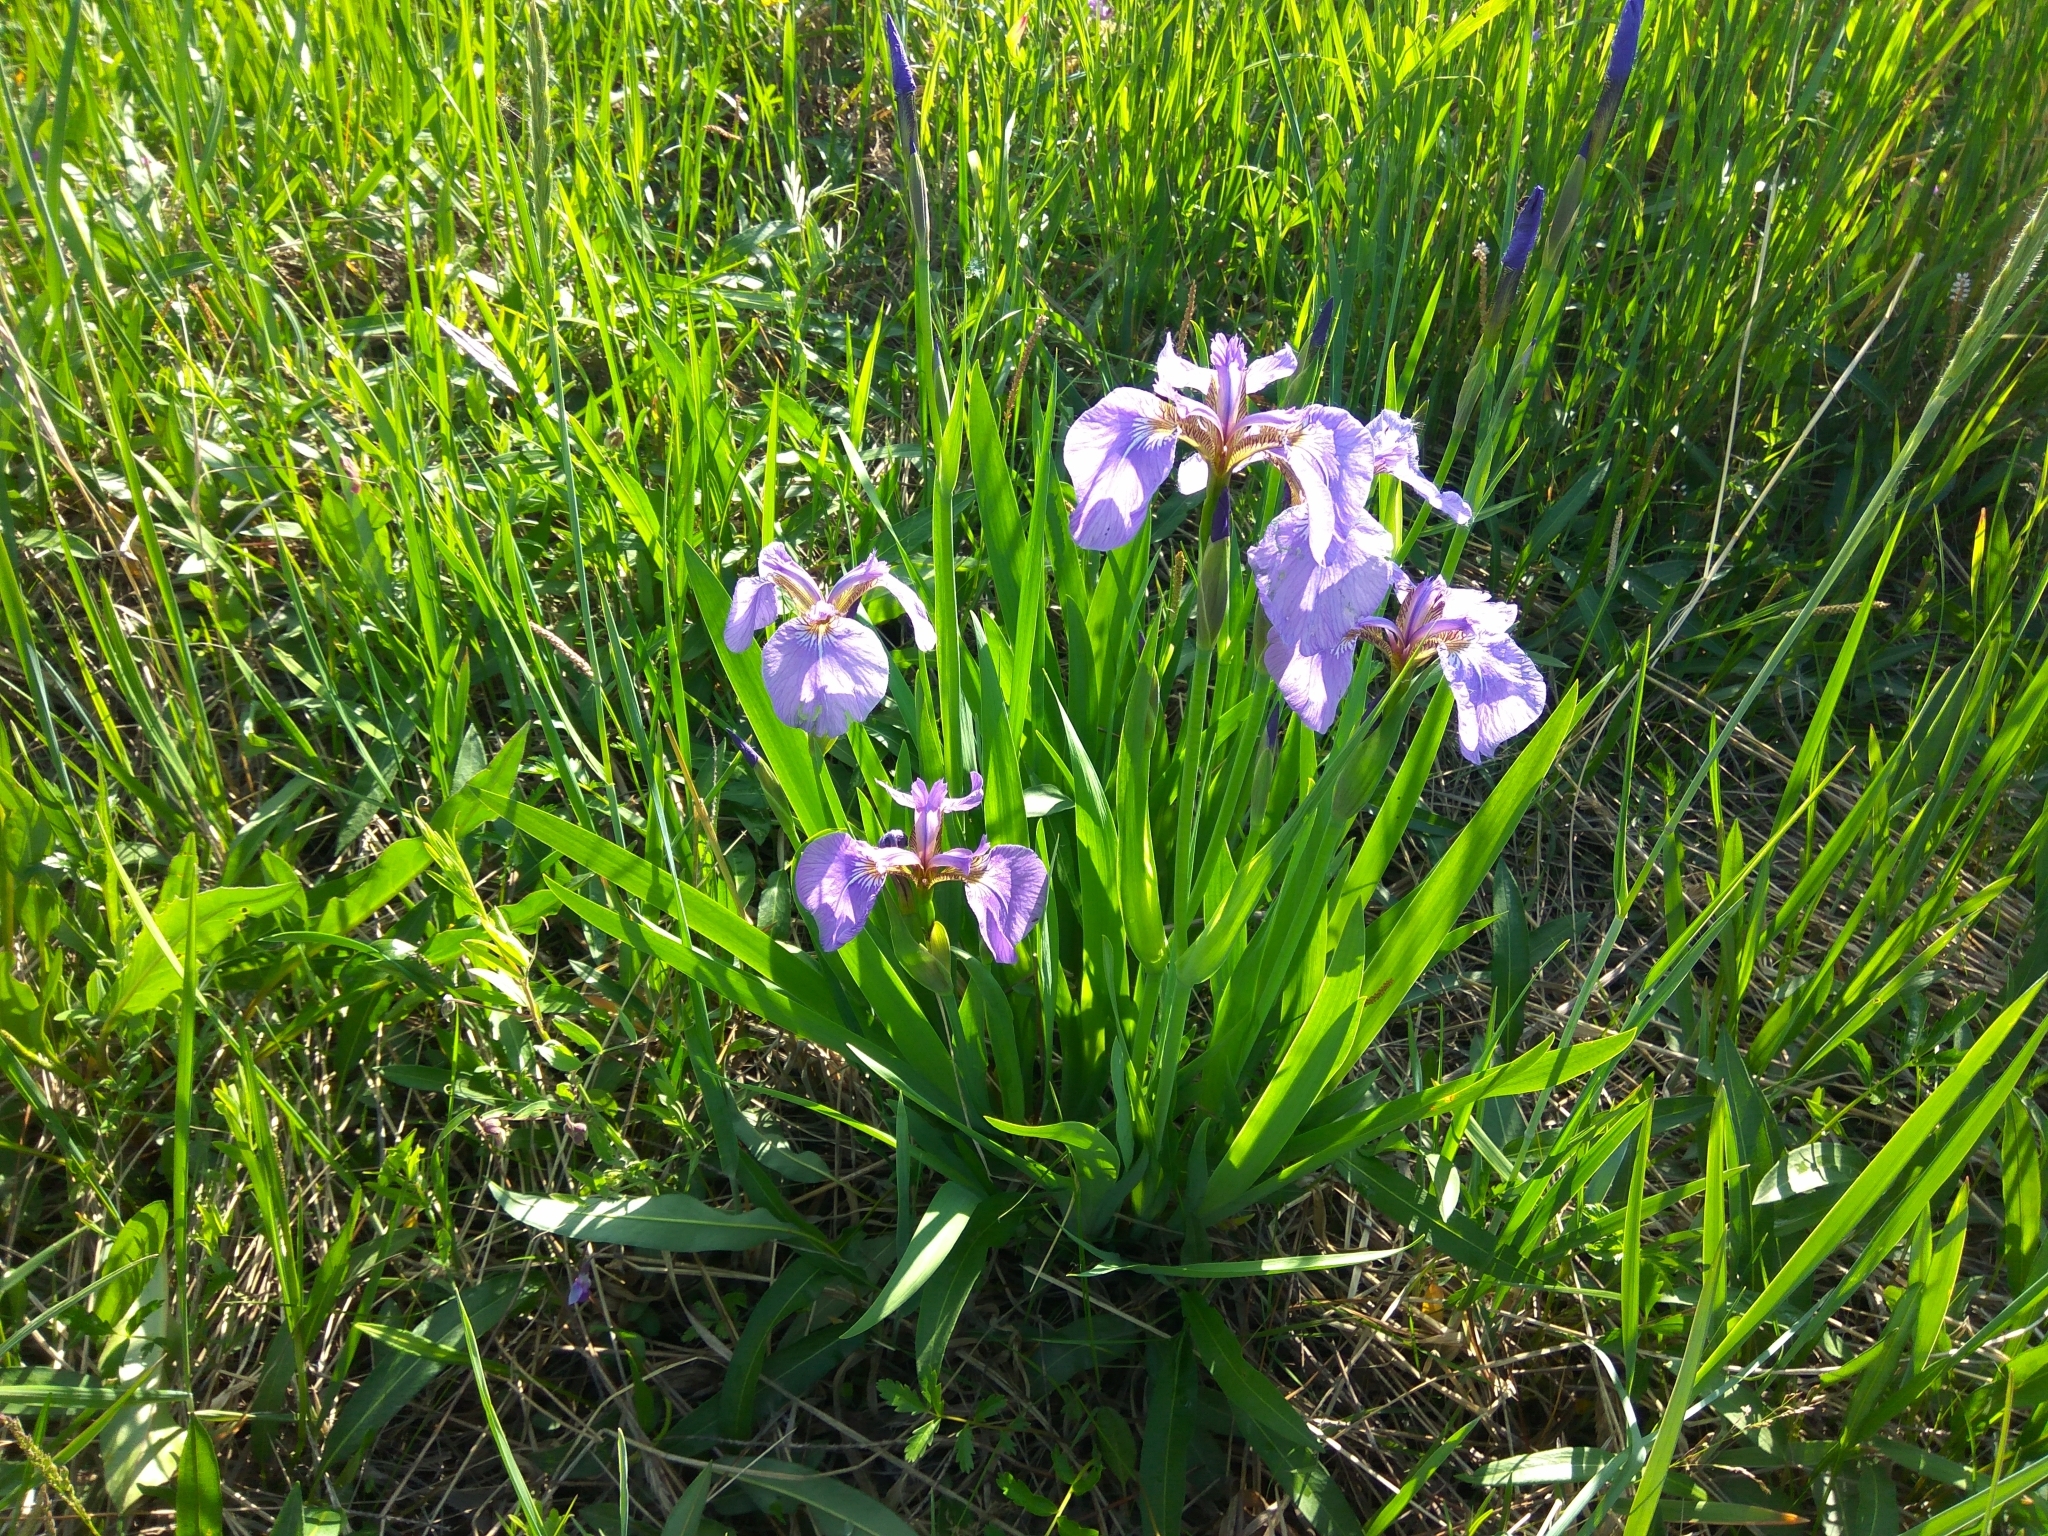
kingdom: Plantae
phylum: Tracheophyta
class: Liliopsida
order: Asparagales
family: Iridaceae
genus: Iris
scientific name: Iris setosa
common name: Arctic blue flag
